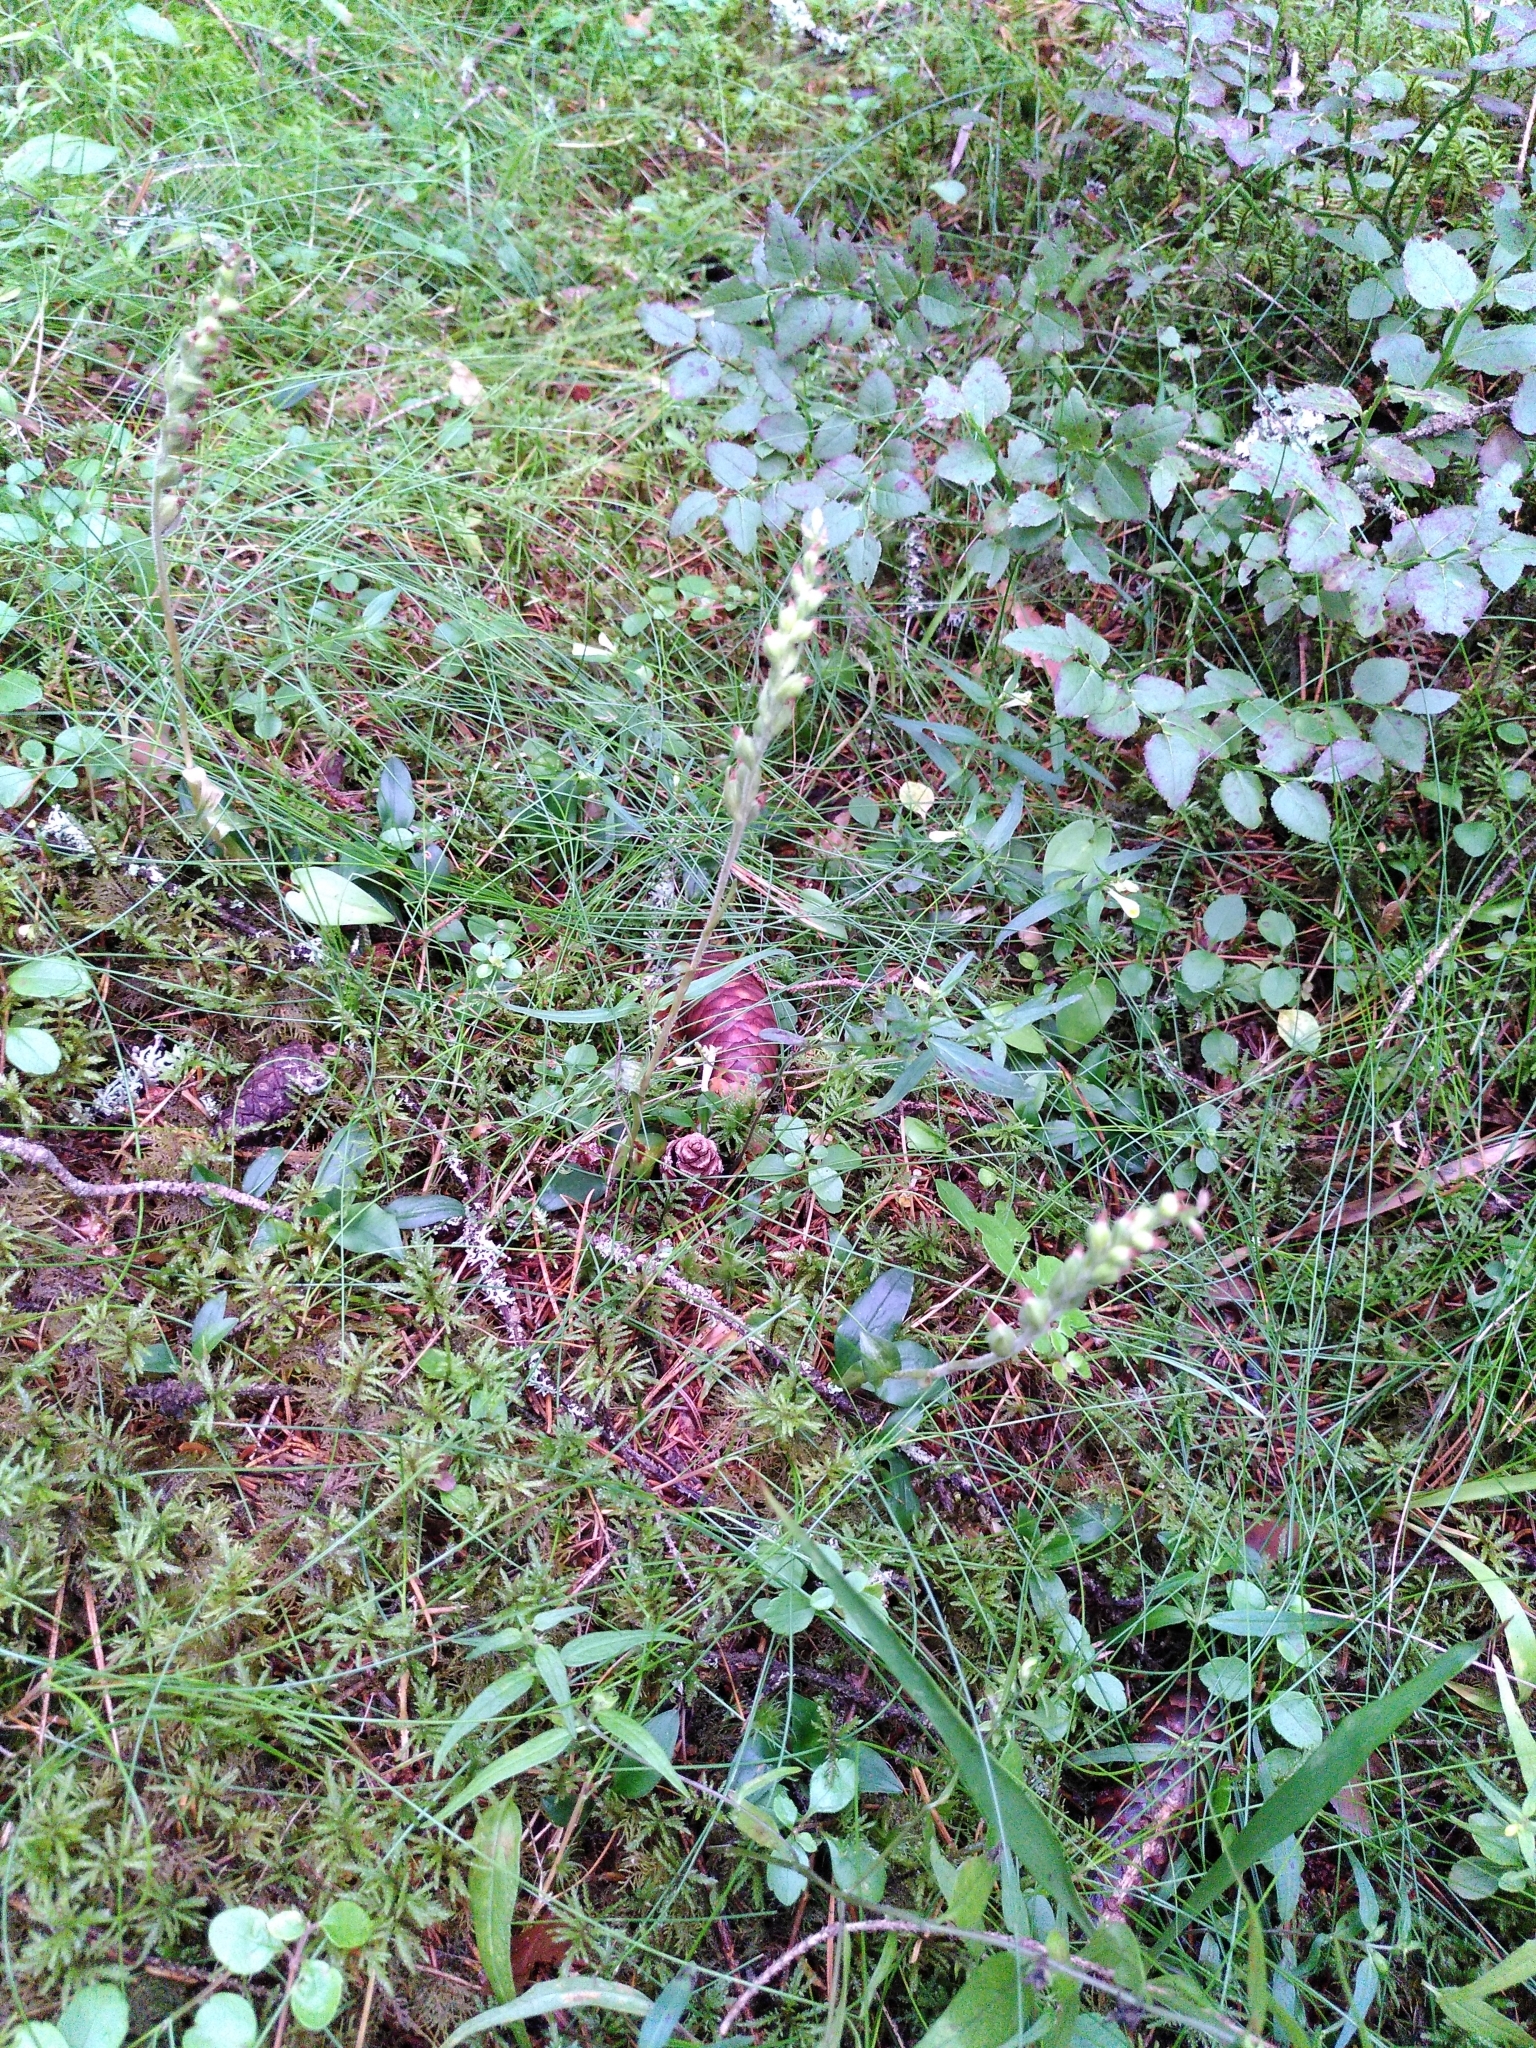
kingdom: Plantae
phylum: Tracheophyta
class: Liliopsida
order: Asparagales
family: Orchidaceae
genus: Goodyera
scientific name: Goodyera repens
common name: Creeping lady's-tresses
